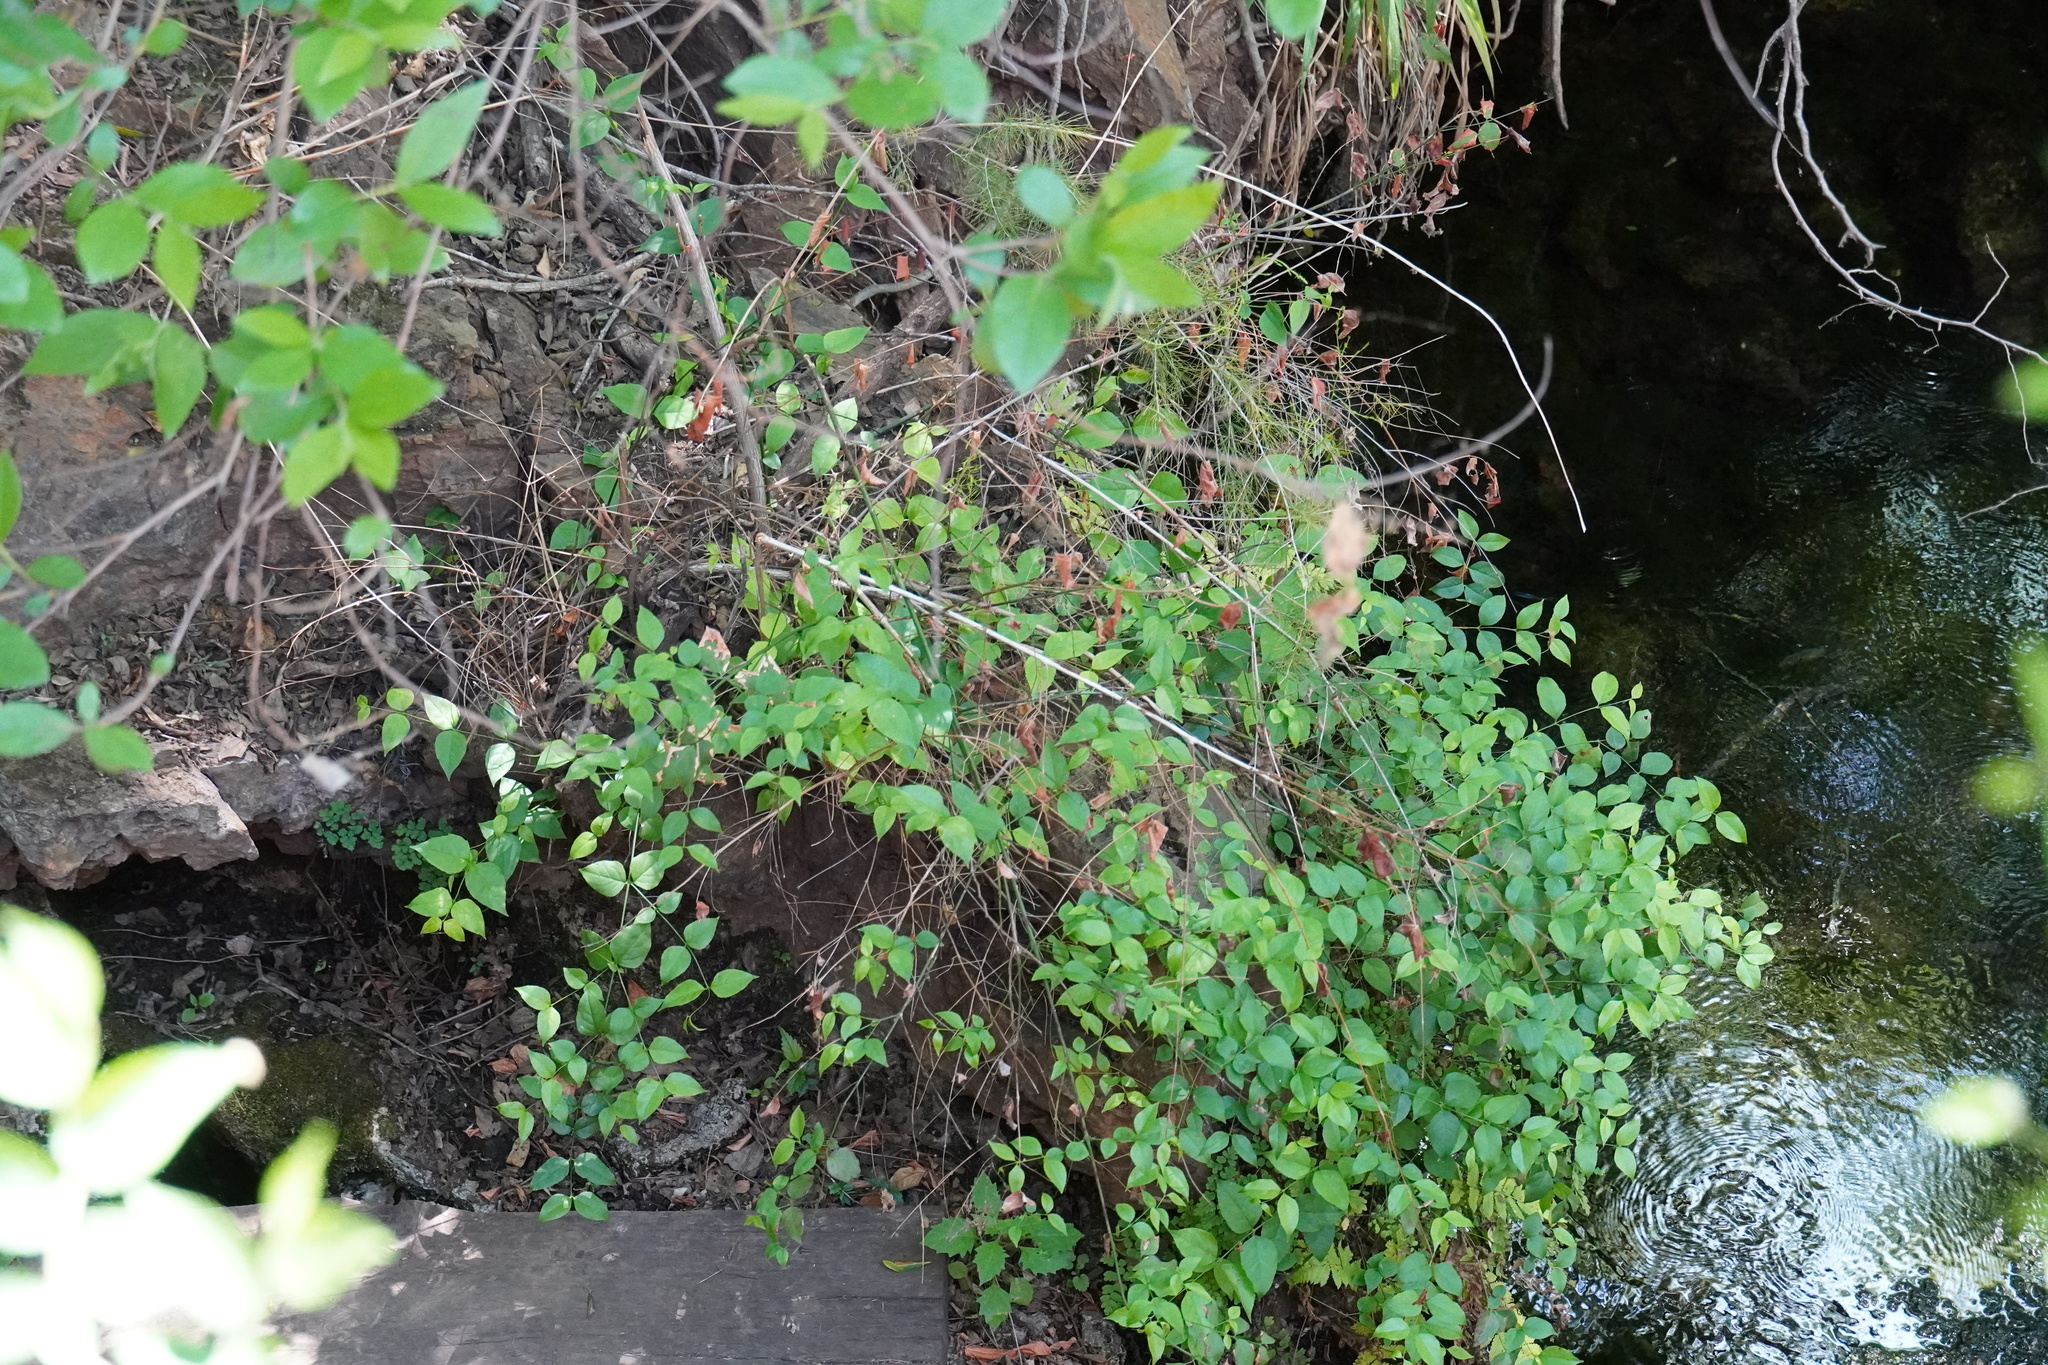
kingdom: Plantae
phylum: Tracheophyta
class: Magnoliopsida
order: Lamiales
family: Stilbaceae
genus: Halleria
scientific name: Halleria lucida
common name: Tree fuschia
